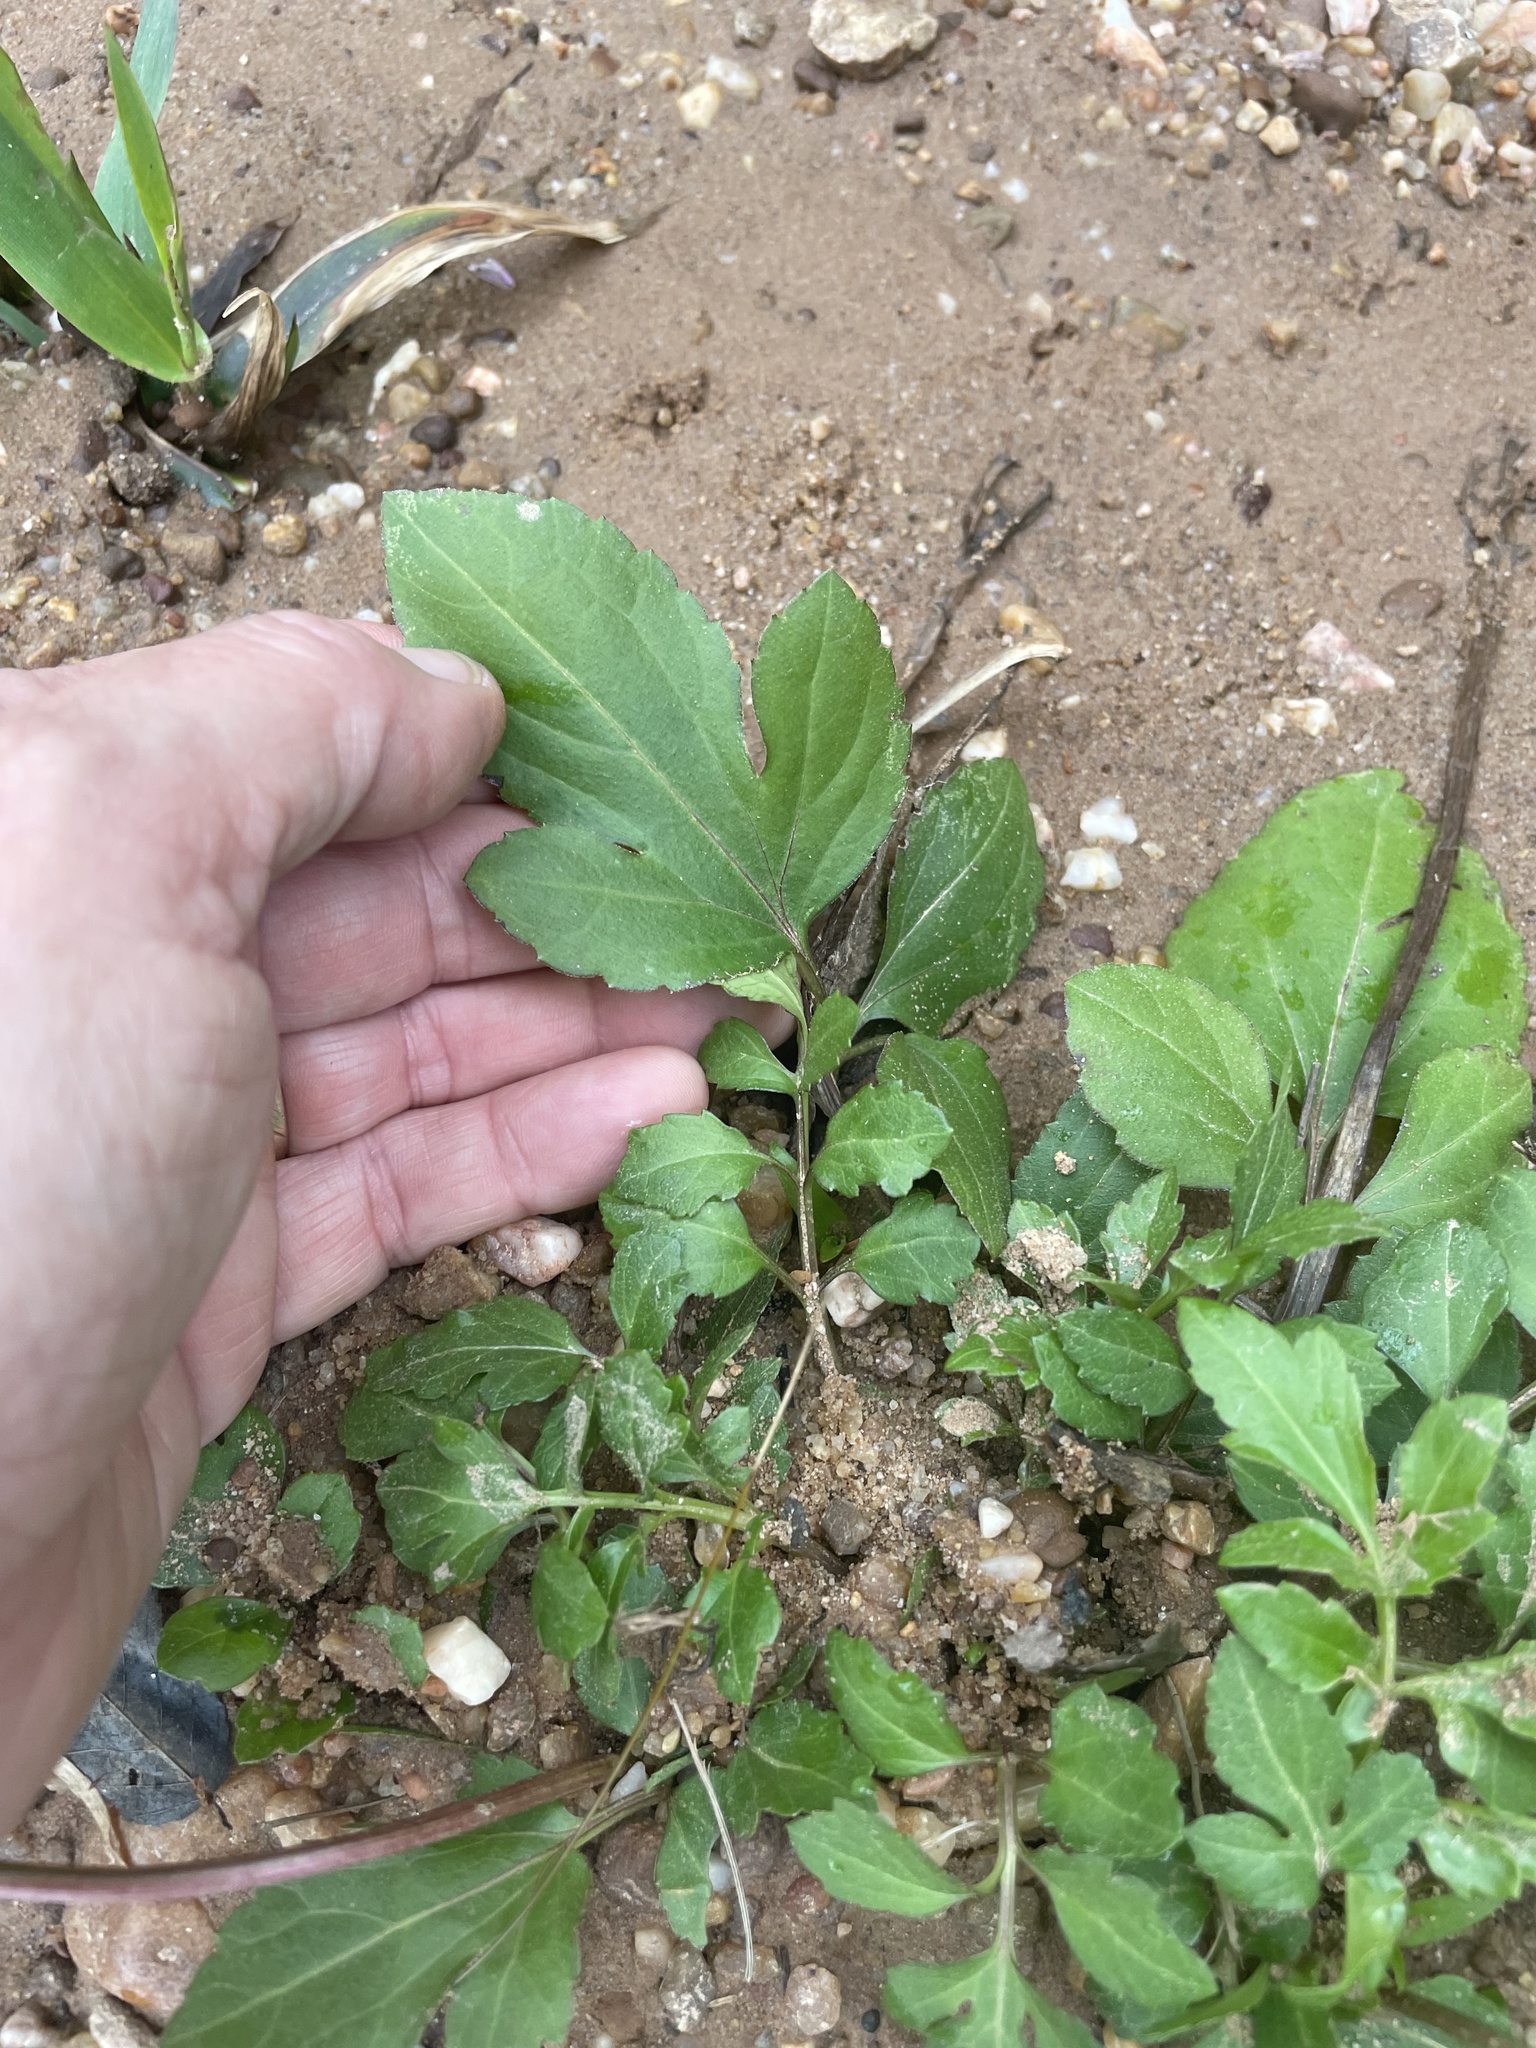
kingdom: Plantae
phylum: Tracheophyta
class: Magnoliopsida
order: Asterales
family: Asteraceae
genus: Rudbeckia
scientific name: Rudbeckia laciniata
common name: Coneflower
